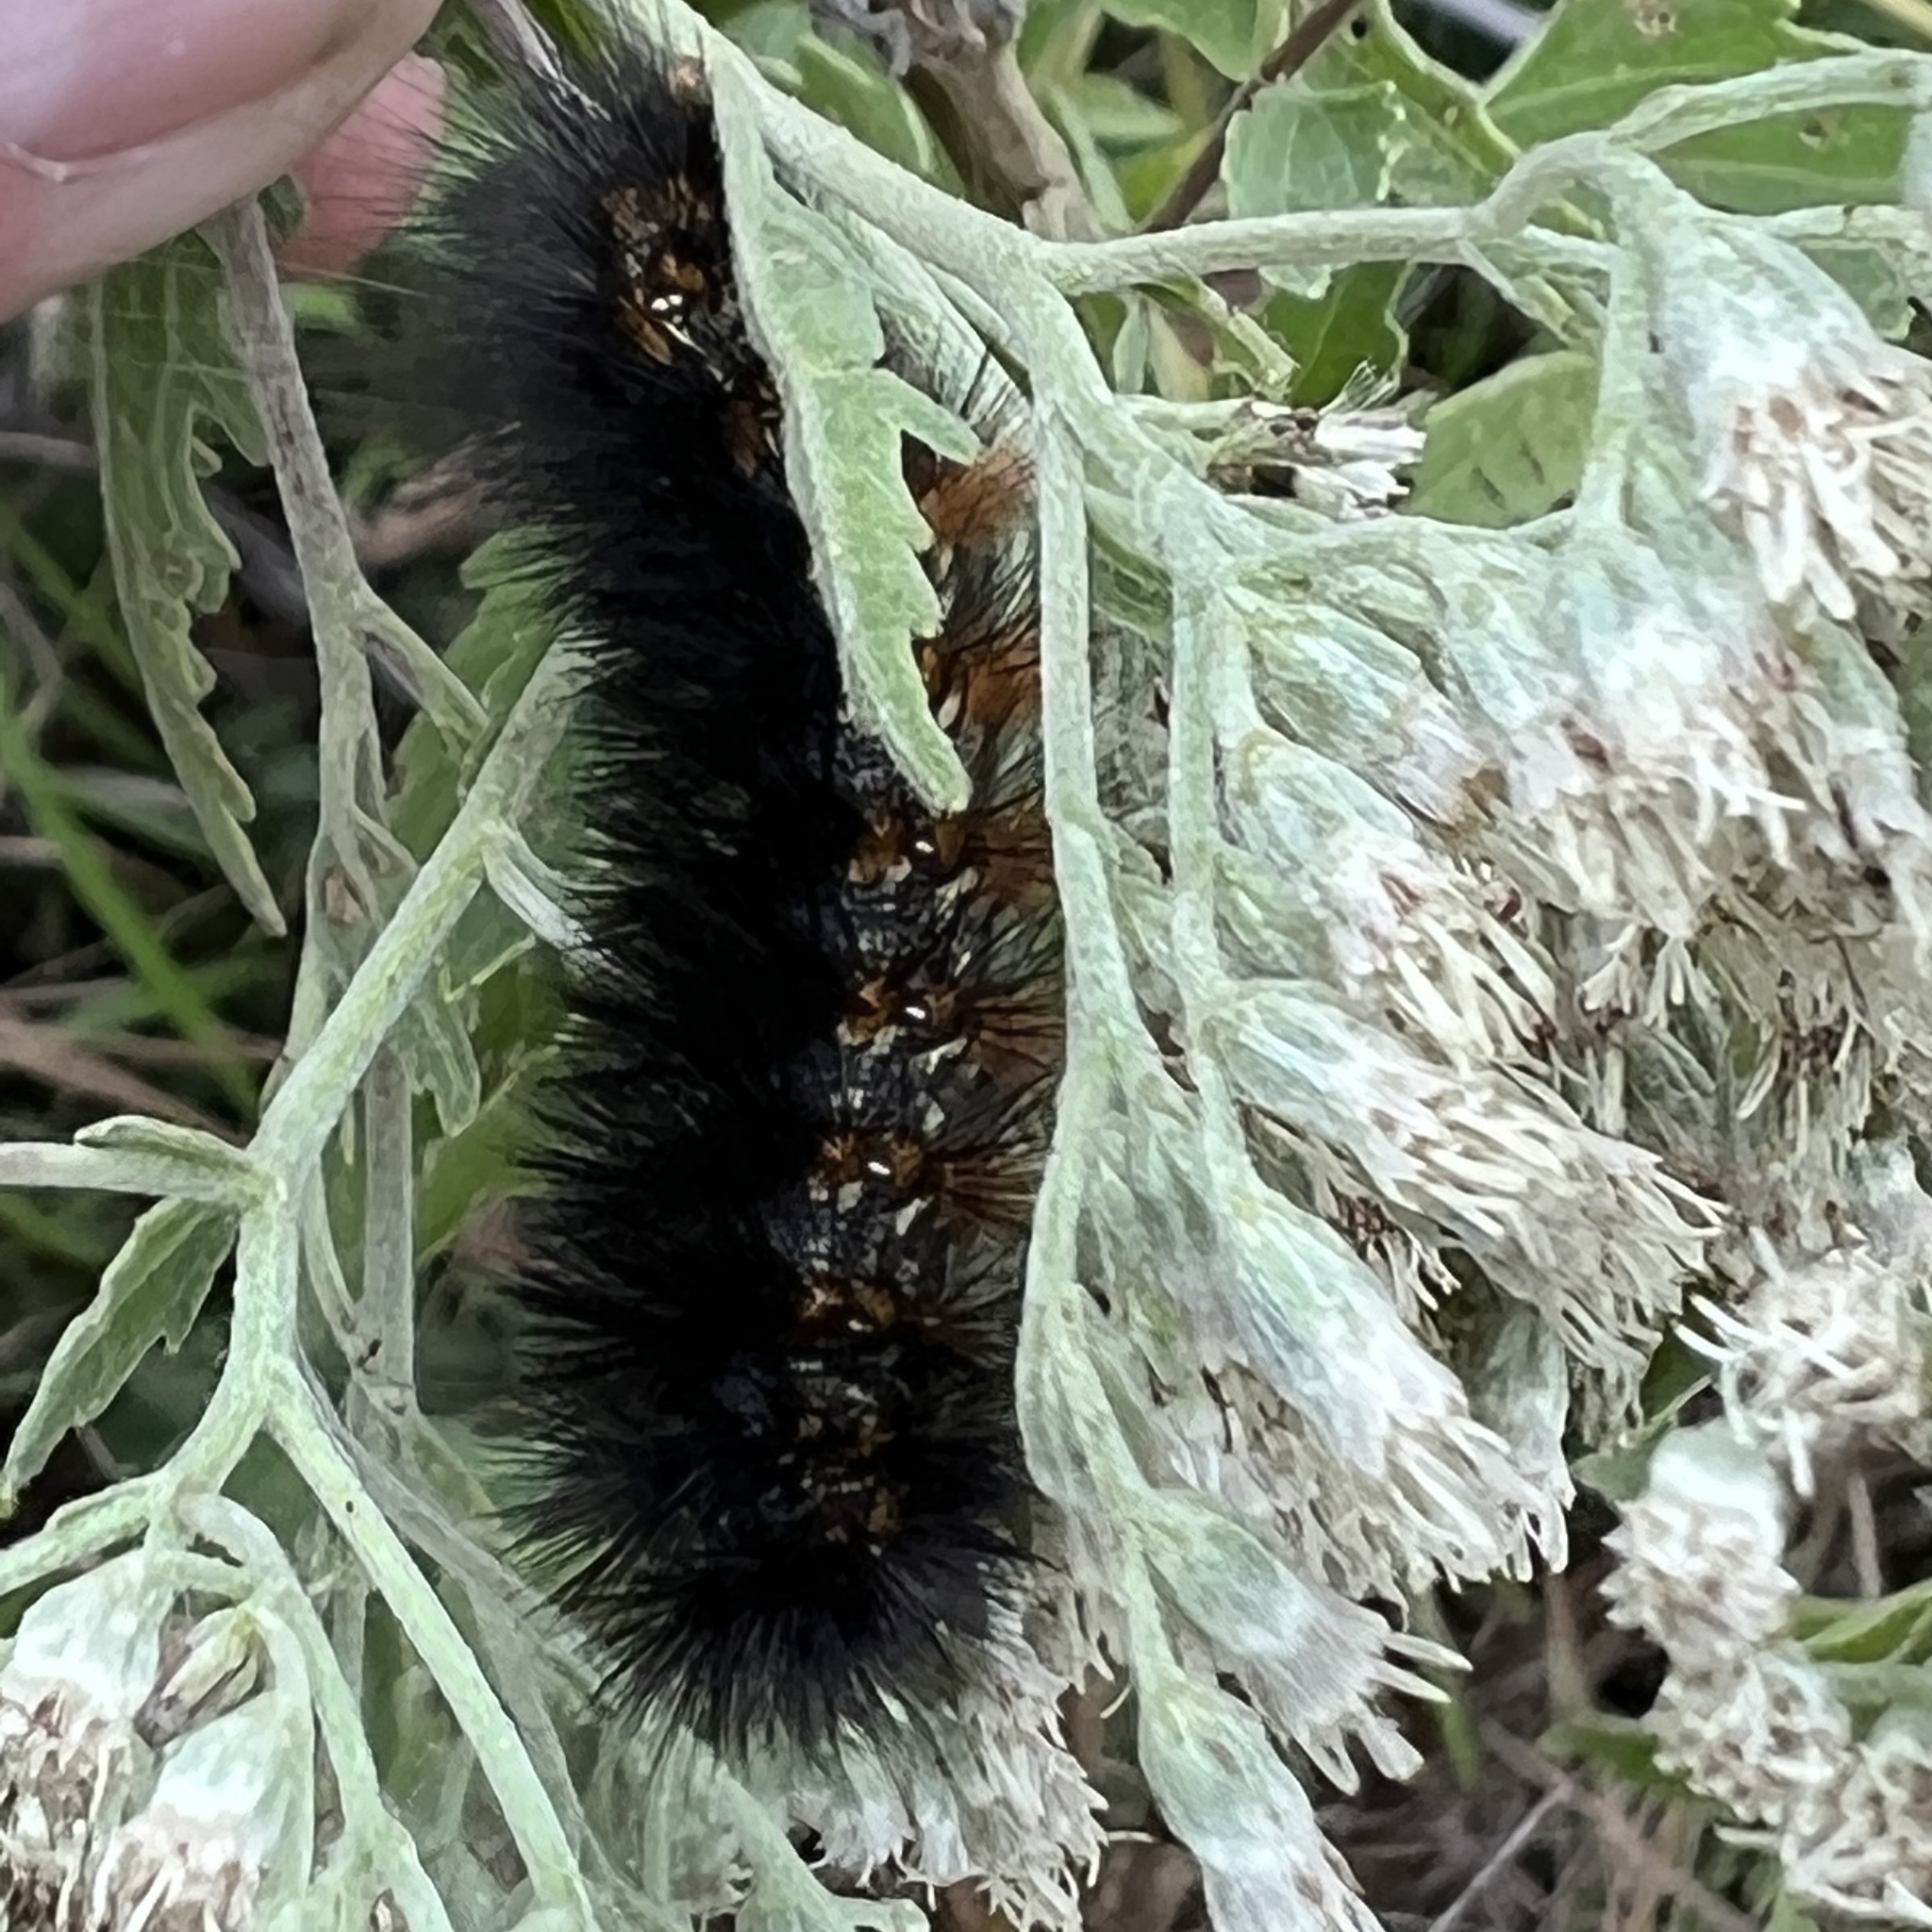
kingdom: Animalia
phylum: Arthropoda
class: Insecta
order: Lepidoptera
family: Erebidae
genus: Estigmene
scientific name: Estigmene acrea
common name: Salt marsh moth
